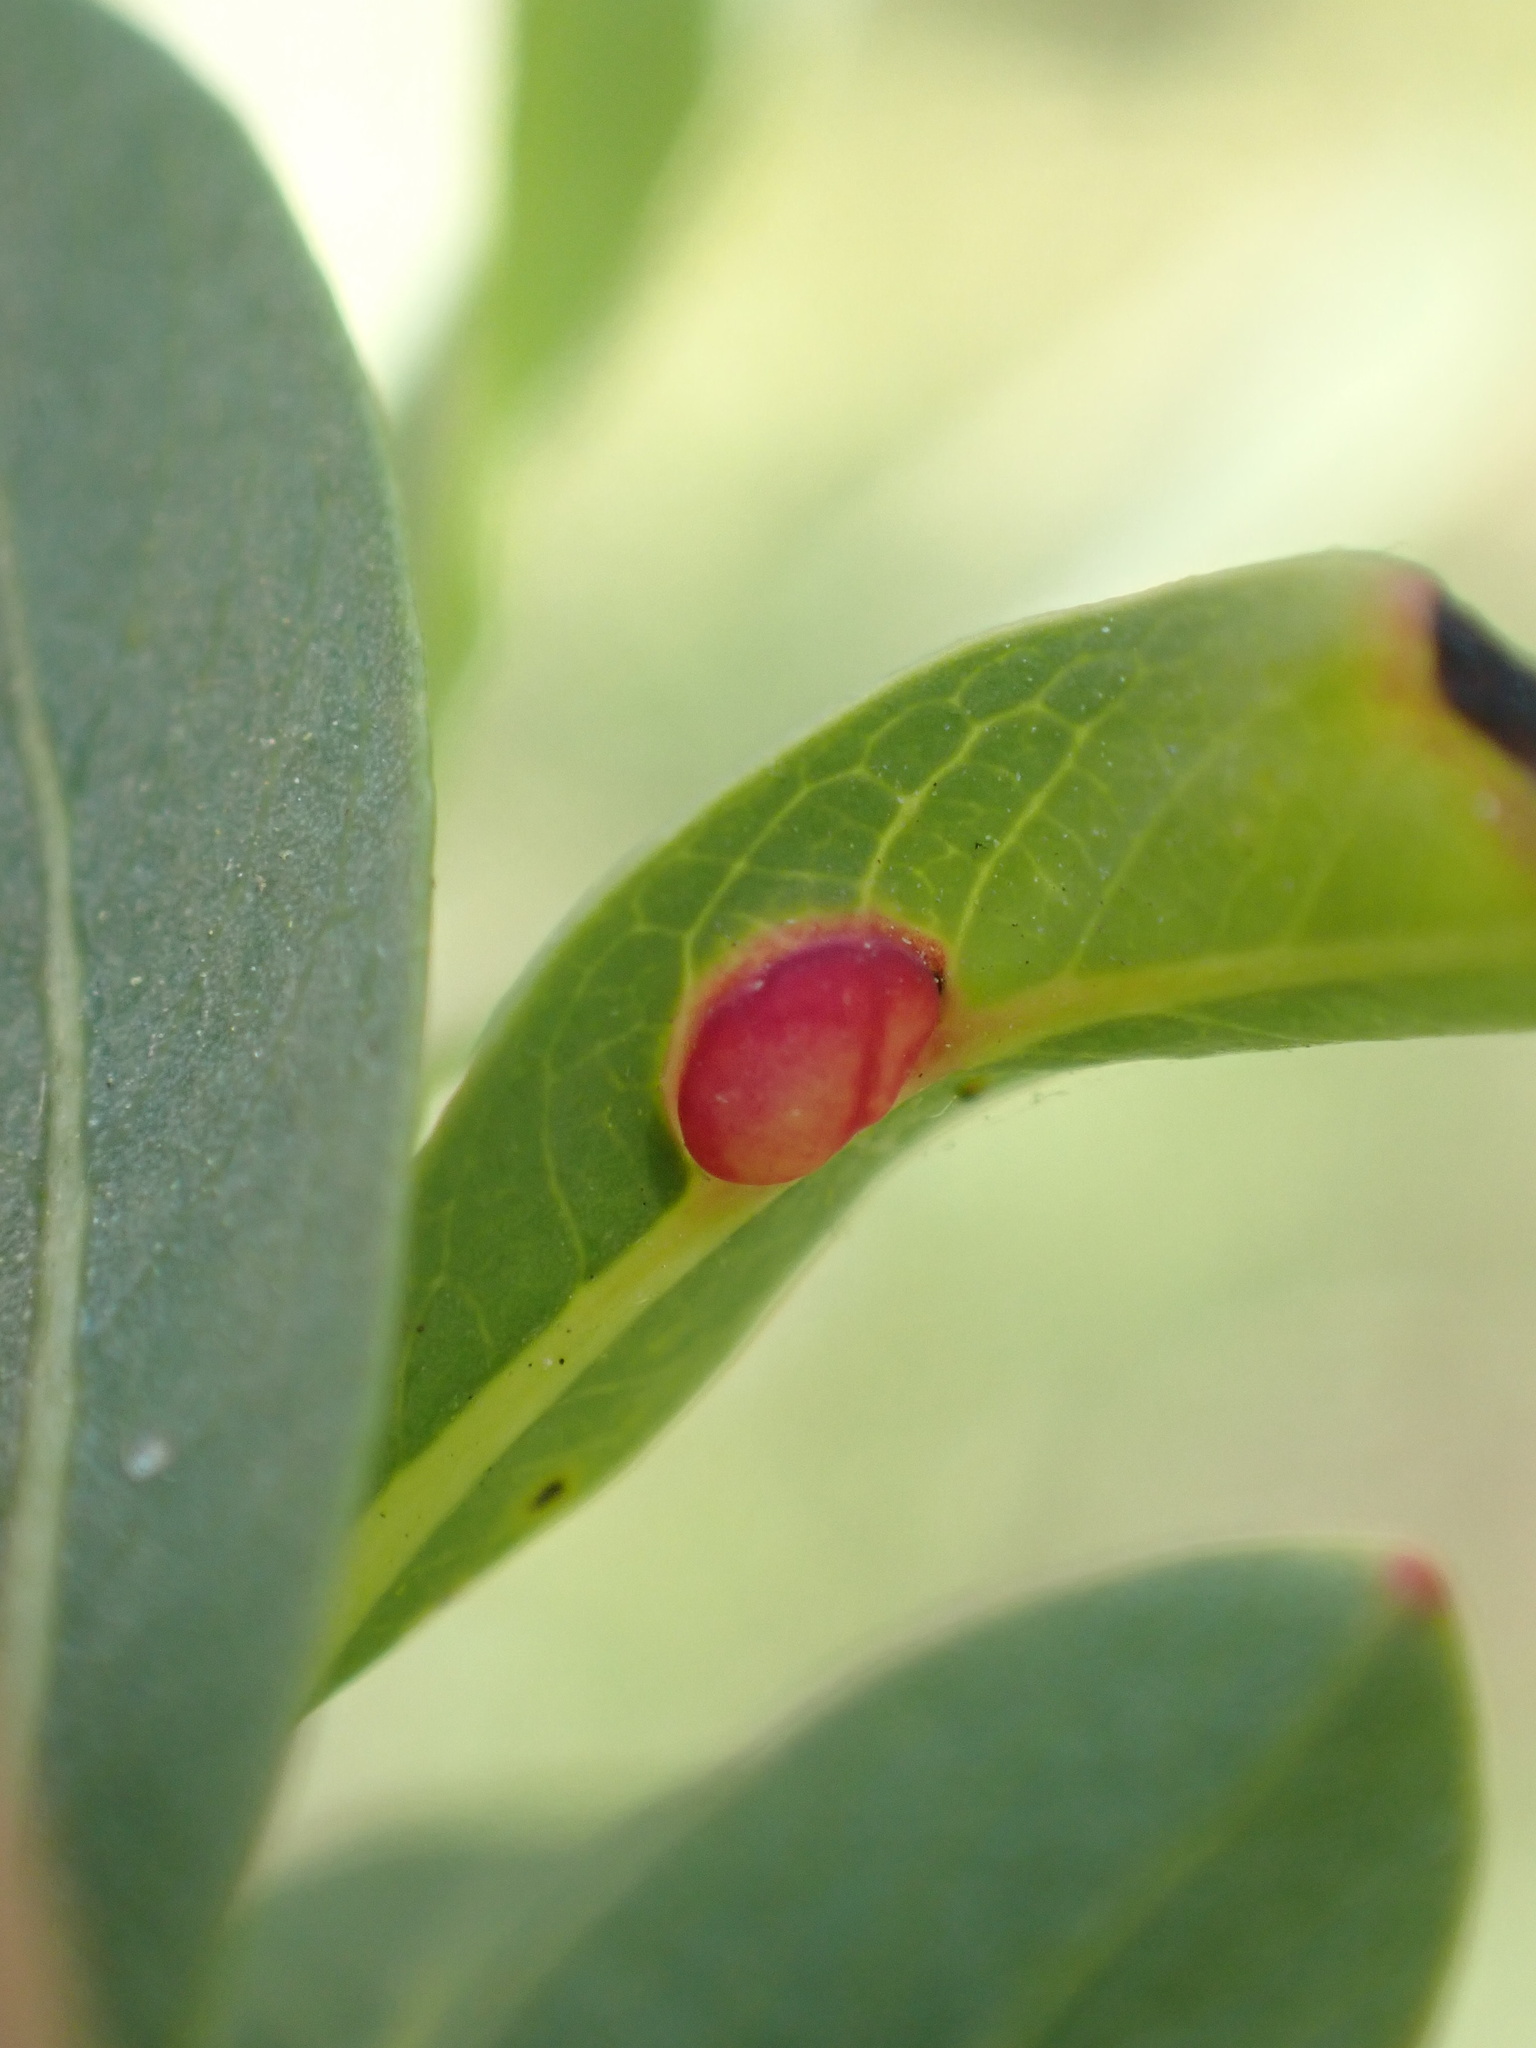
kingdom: Animalia
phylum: Arthropoda
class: Insecta
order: Hymenoptera
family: Tenthredinidae
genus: Euura
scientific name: Euura viminalis
